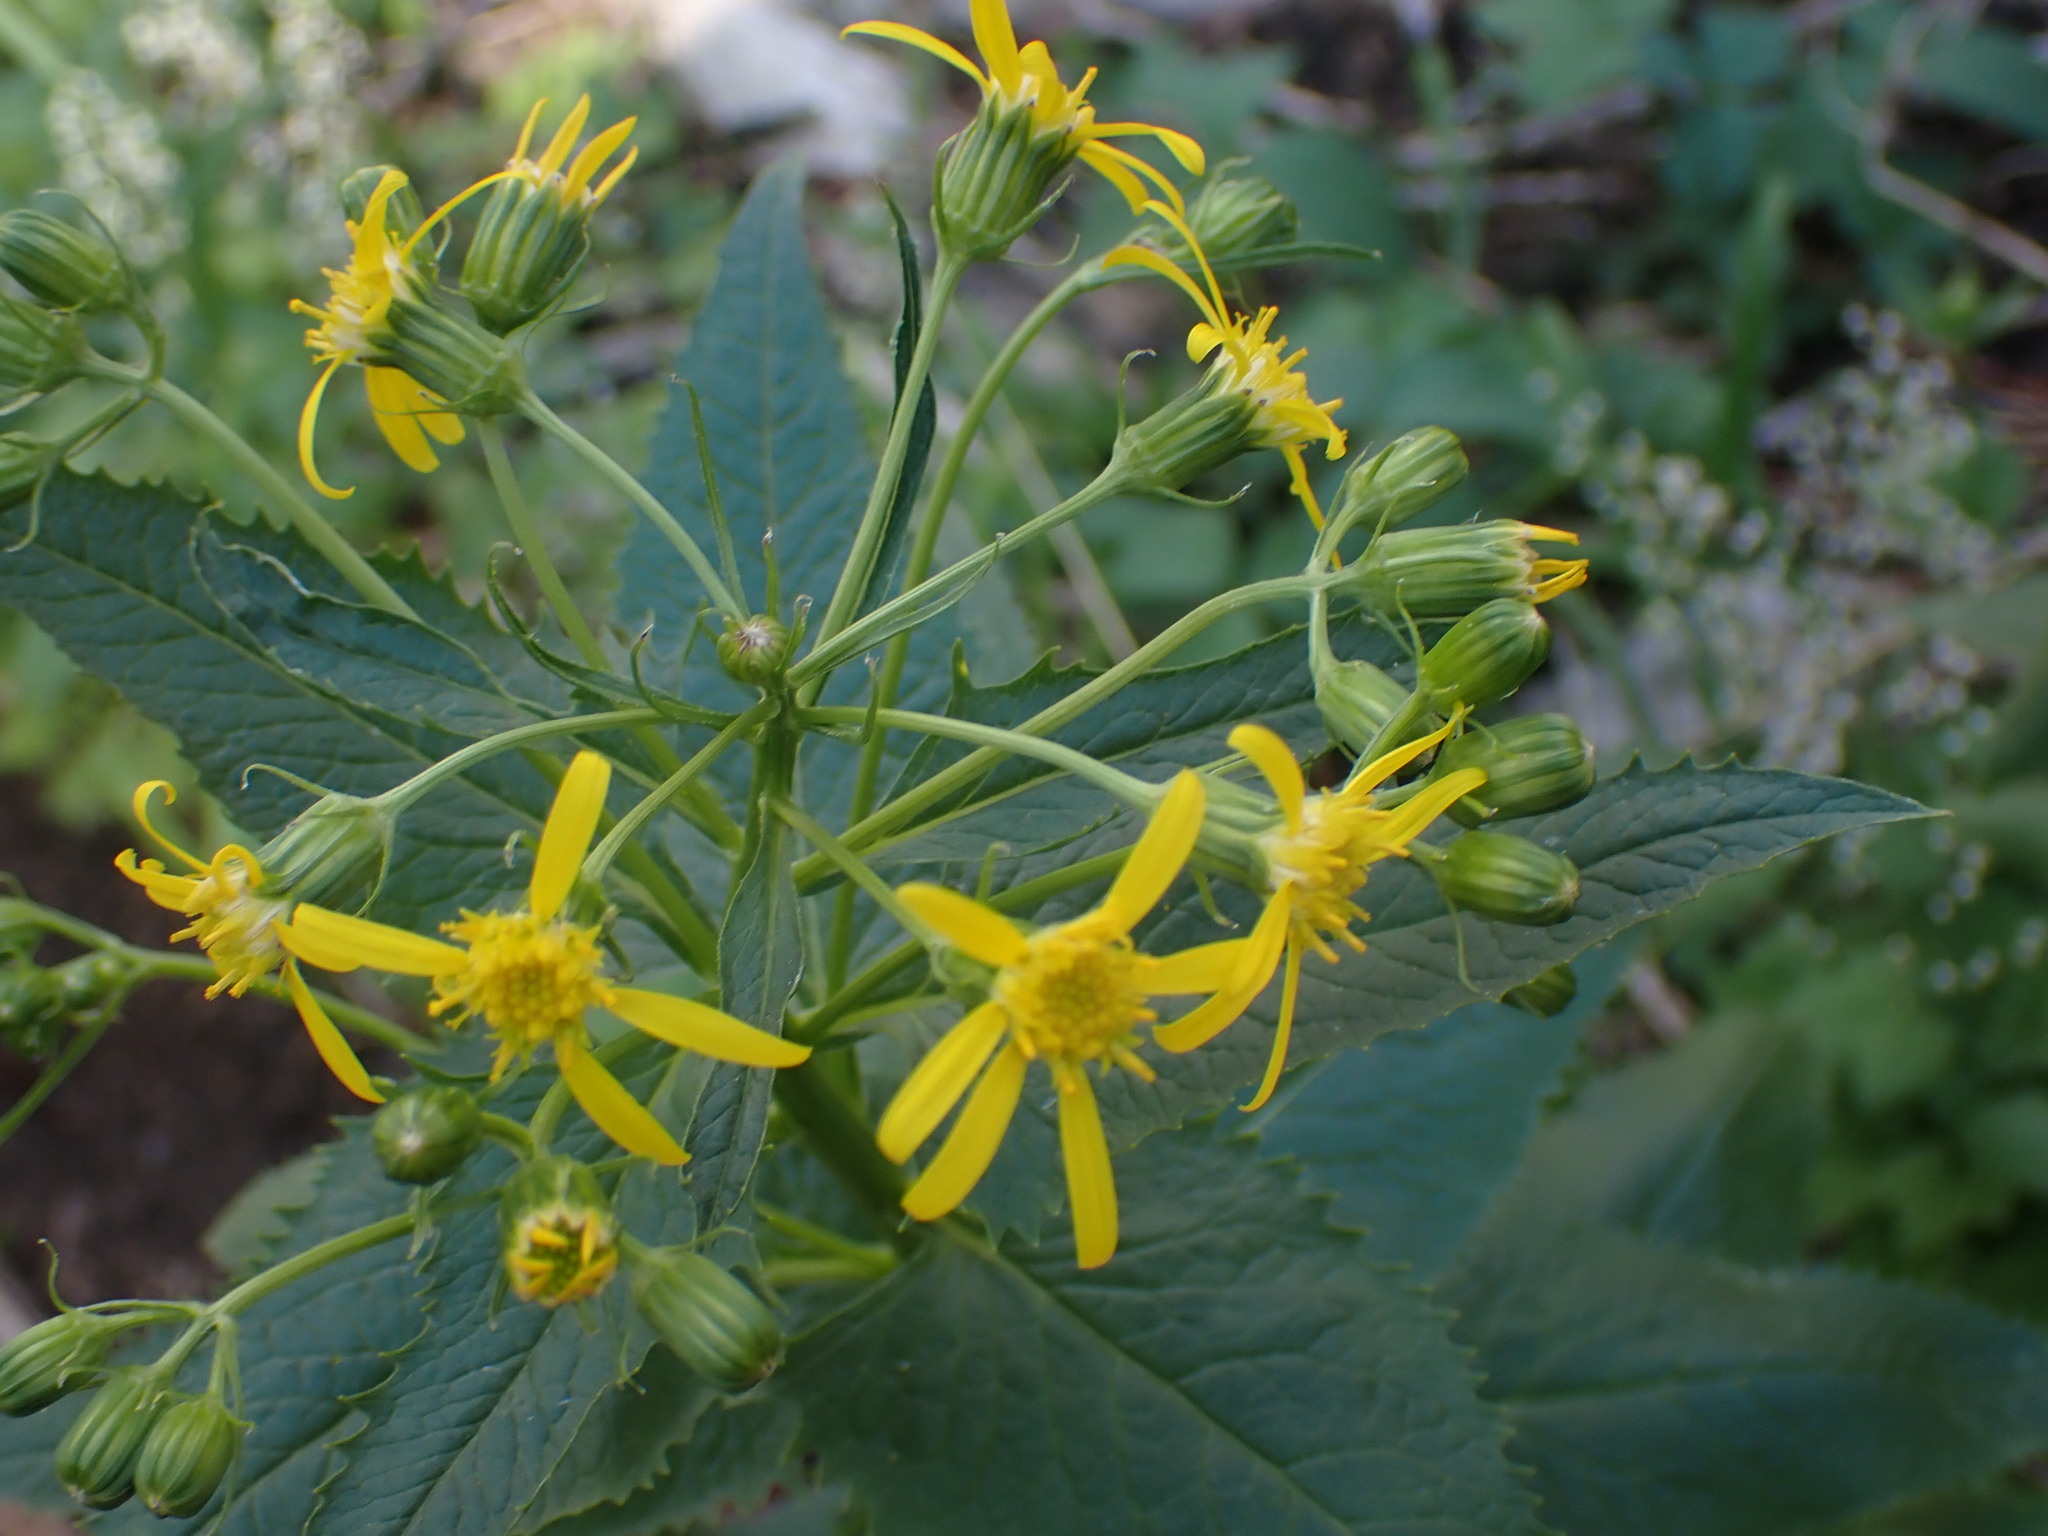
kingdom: Plantae
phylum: Tracheophyta
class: Magnoliopsida
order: Asterales
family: Asteraceae
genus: Senecio
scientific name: Senecio triangularis
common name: Arrowleaf butterweed
